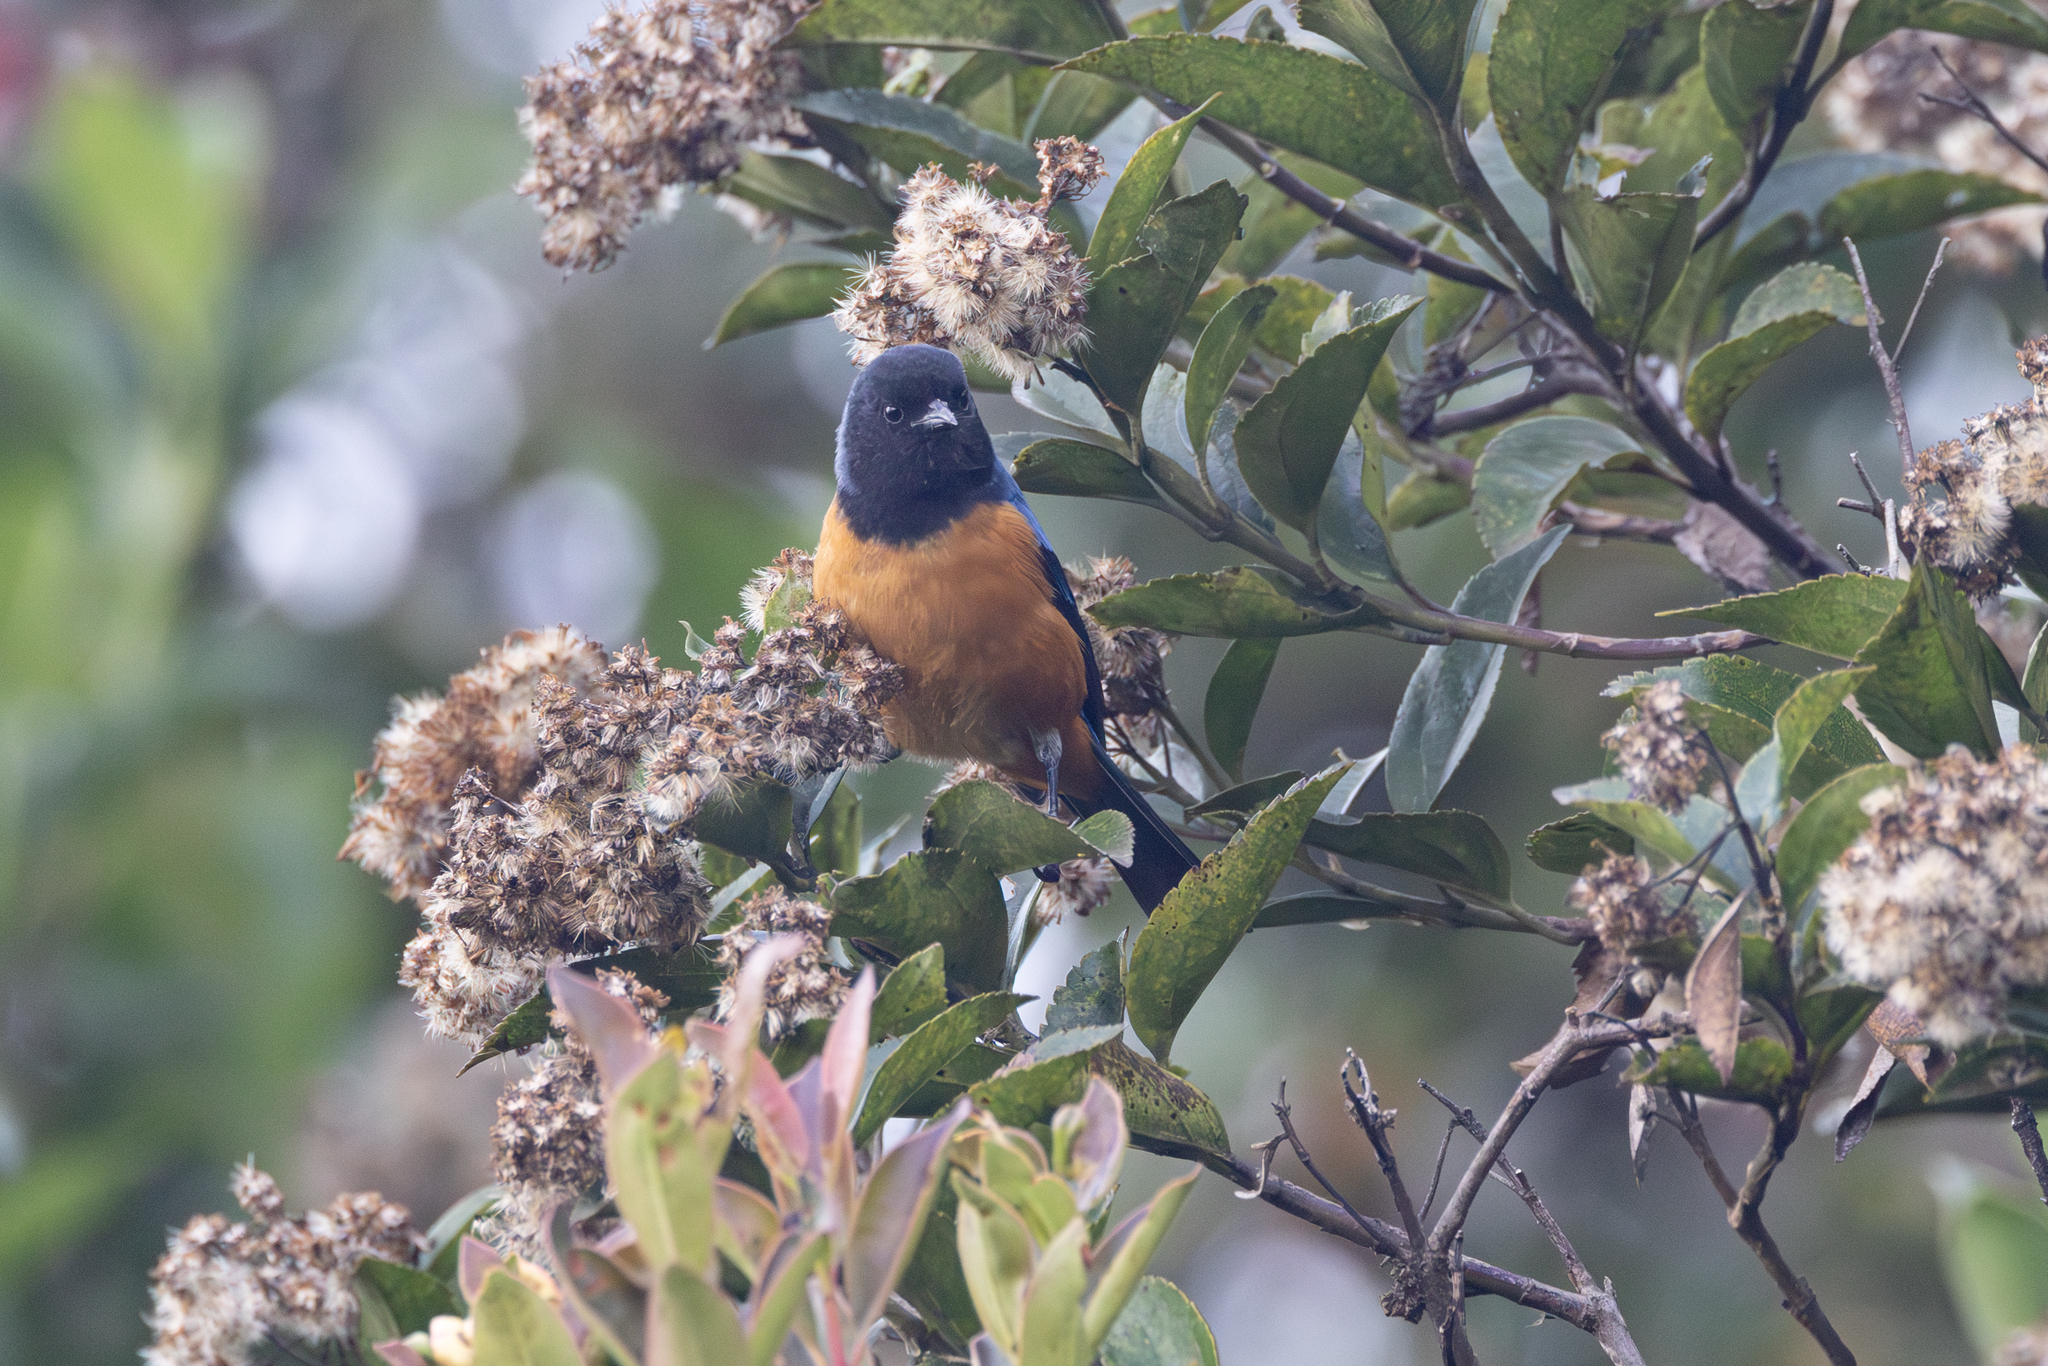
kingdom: Animalia
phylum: Chordata
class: Aves
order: Passeriformes
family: Thraupidae
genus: Conirostrum
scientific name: Conirostrum sitticolor
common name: Blue-backed conebill
